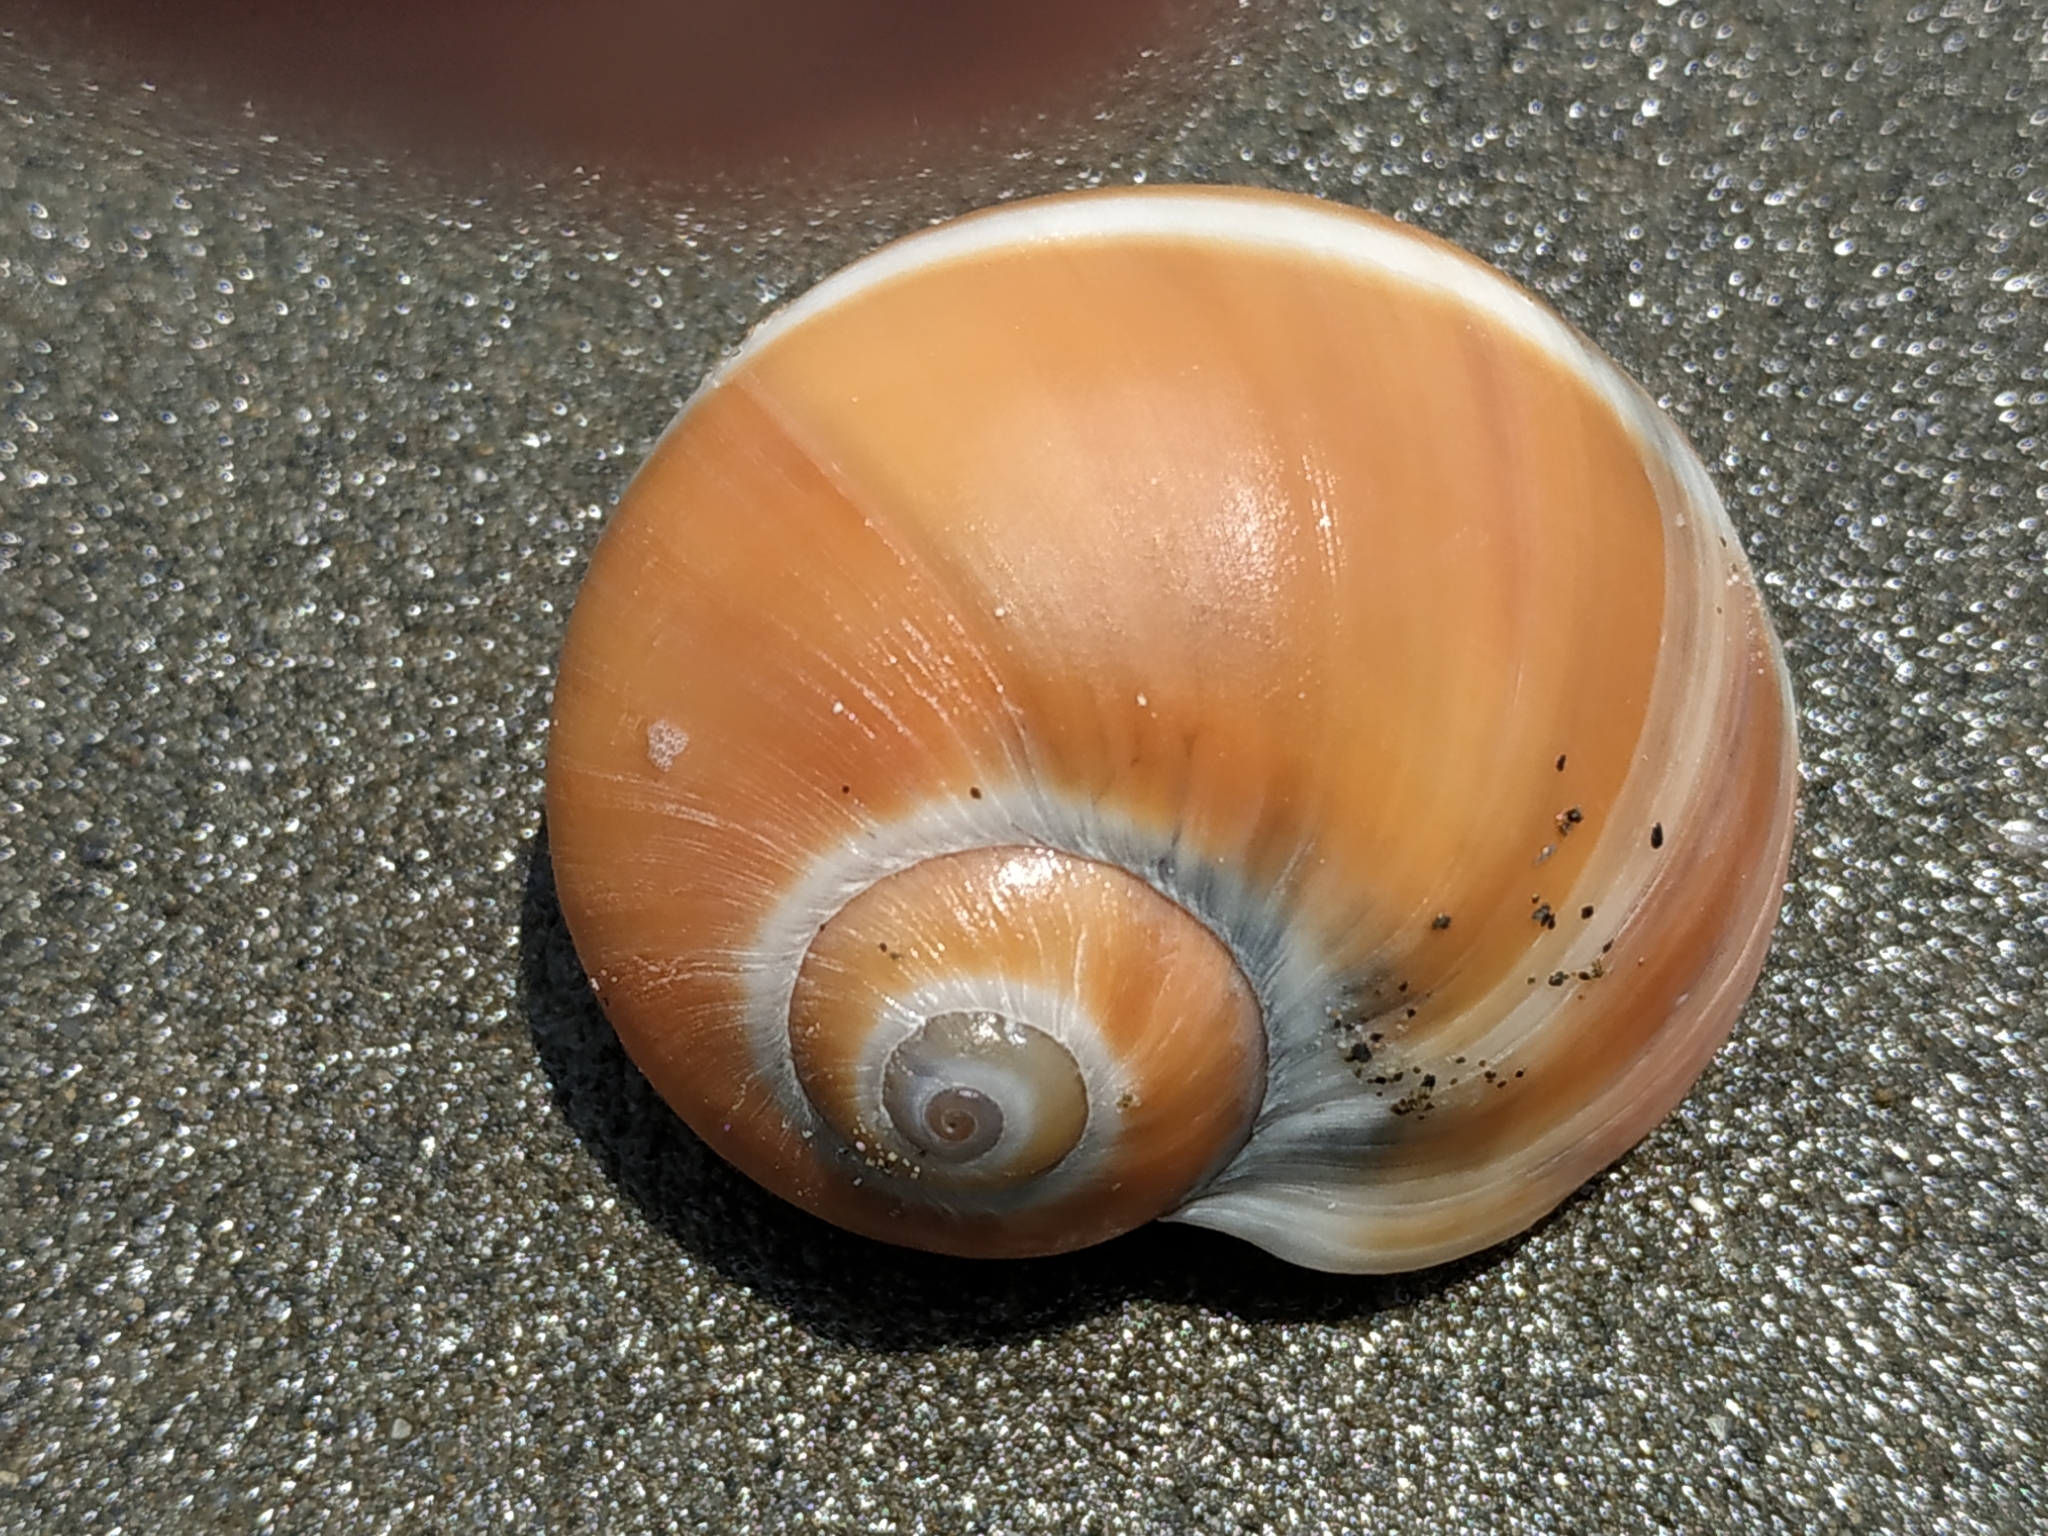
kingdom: Animalia
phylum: Mollusca
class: Gastropoda
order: Littorinimorpha
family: Naticidae
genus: Natica
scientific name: Natica vitellus
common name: Calf moonsnail
